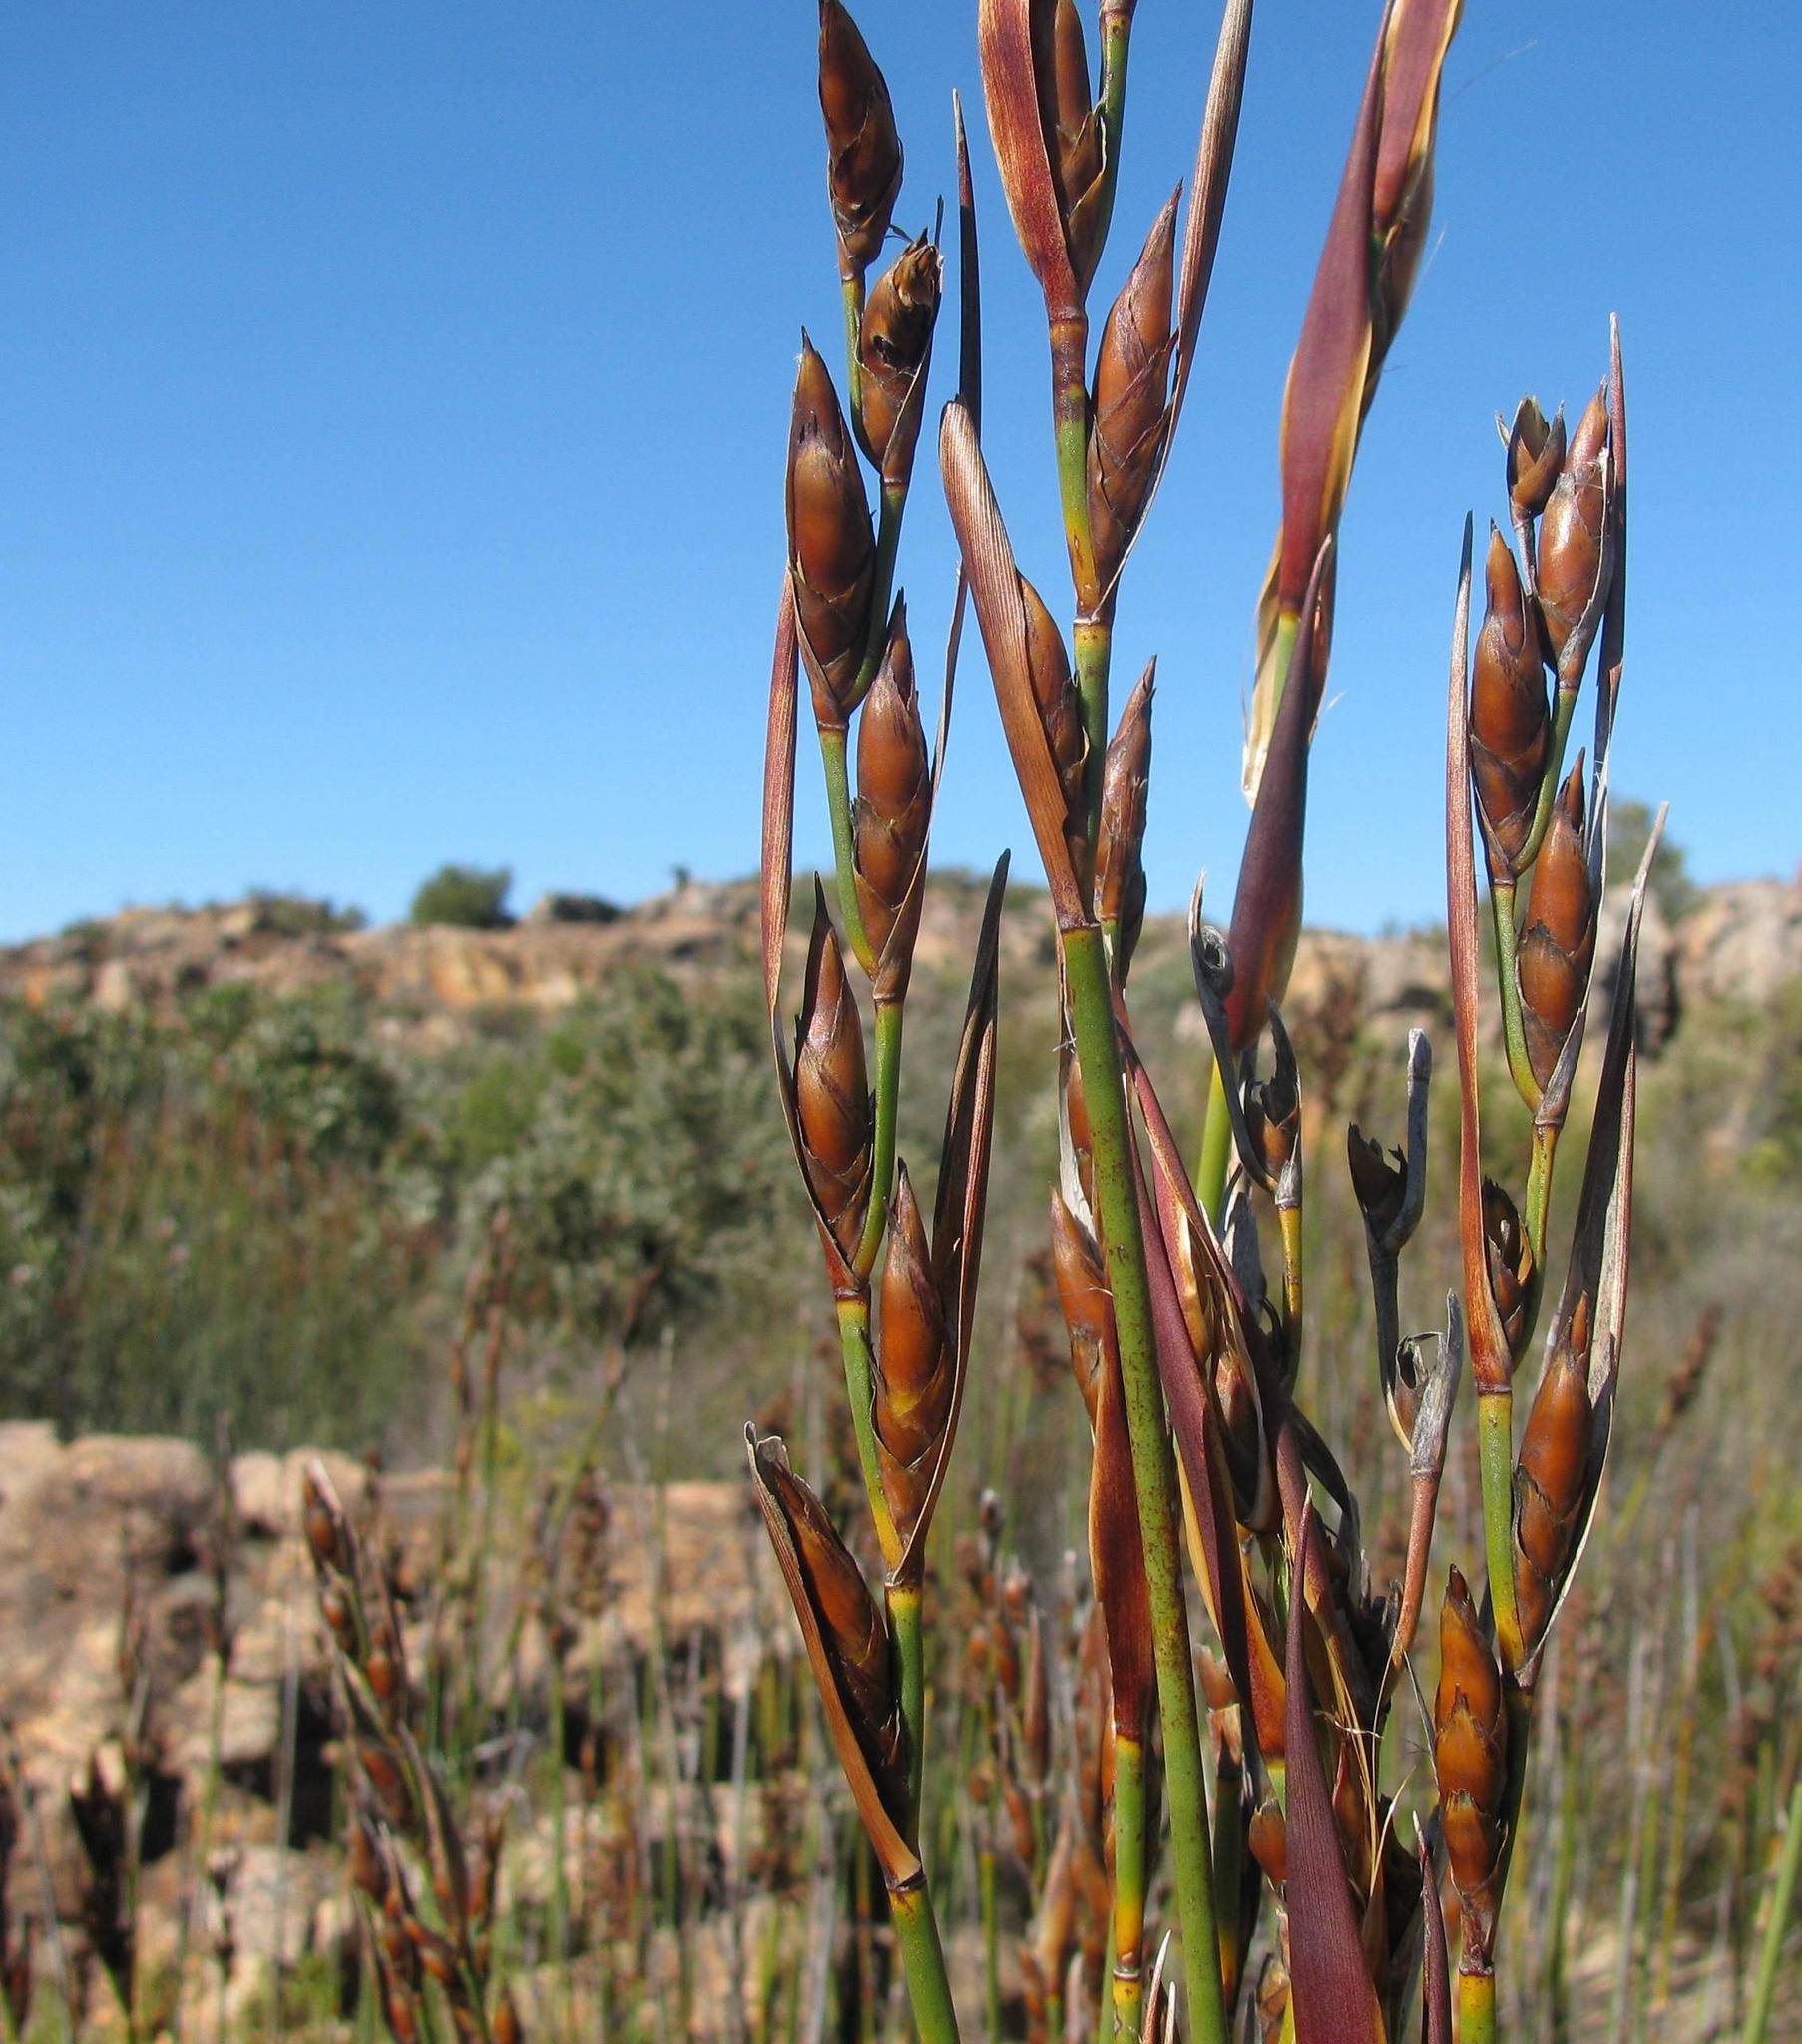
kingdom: Plantae
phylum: Tracheophyta
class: Liliopsida
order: Poales
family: Restionaceae
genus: Cannomois
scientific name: Cannomois parviflora
